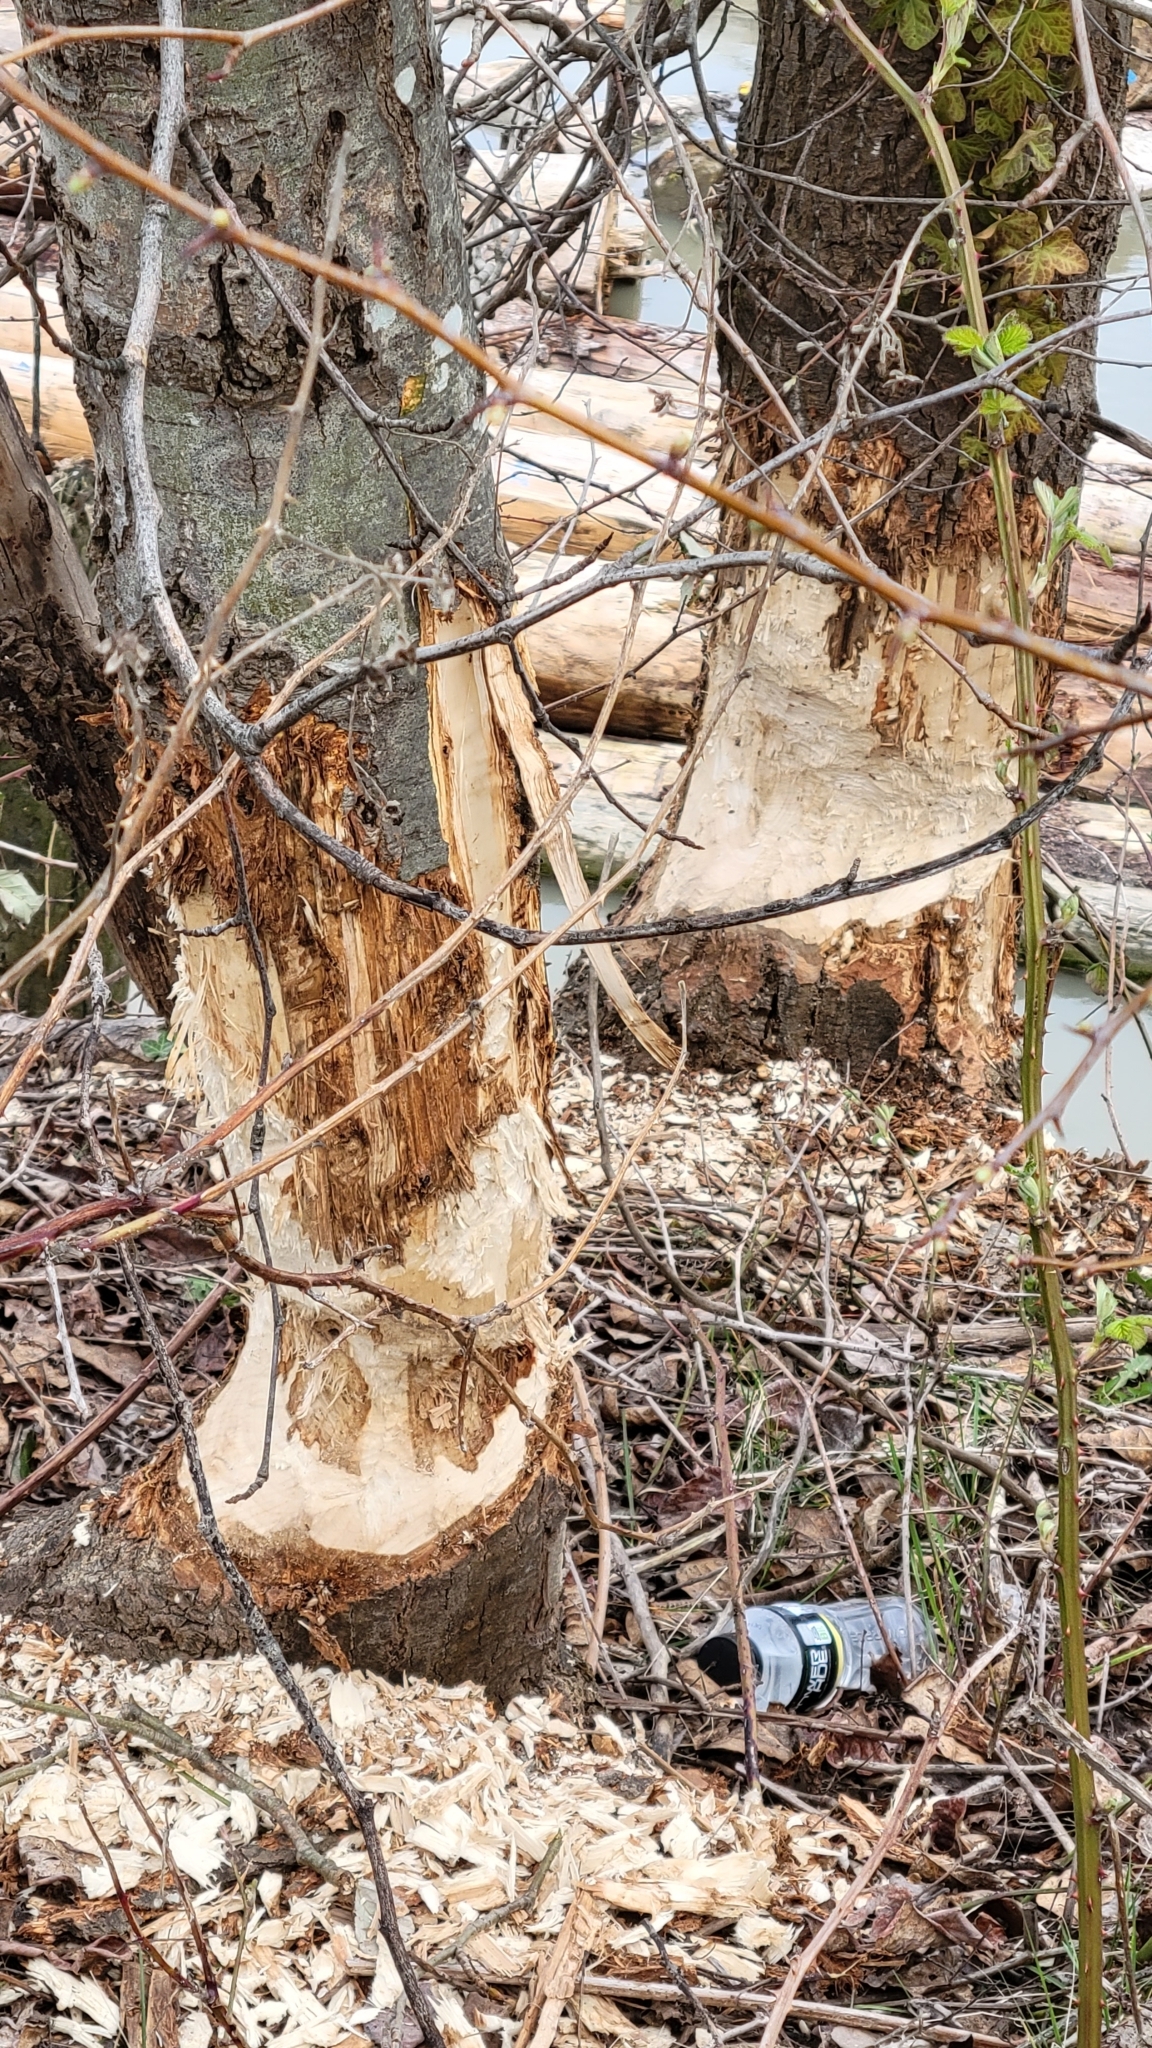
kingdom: Animalia
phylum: Chordata
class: Mammalia
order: Rodentia
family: Castoridae
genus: Castor
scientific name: Castor canadensis
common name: American beaver
